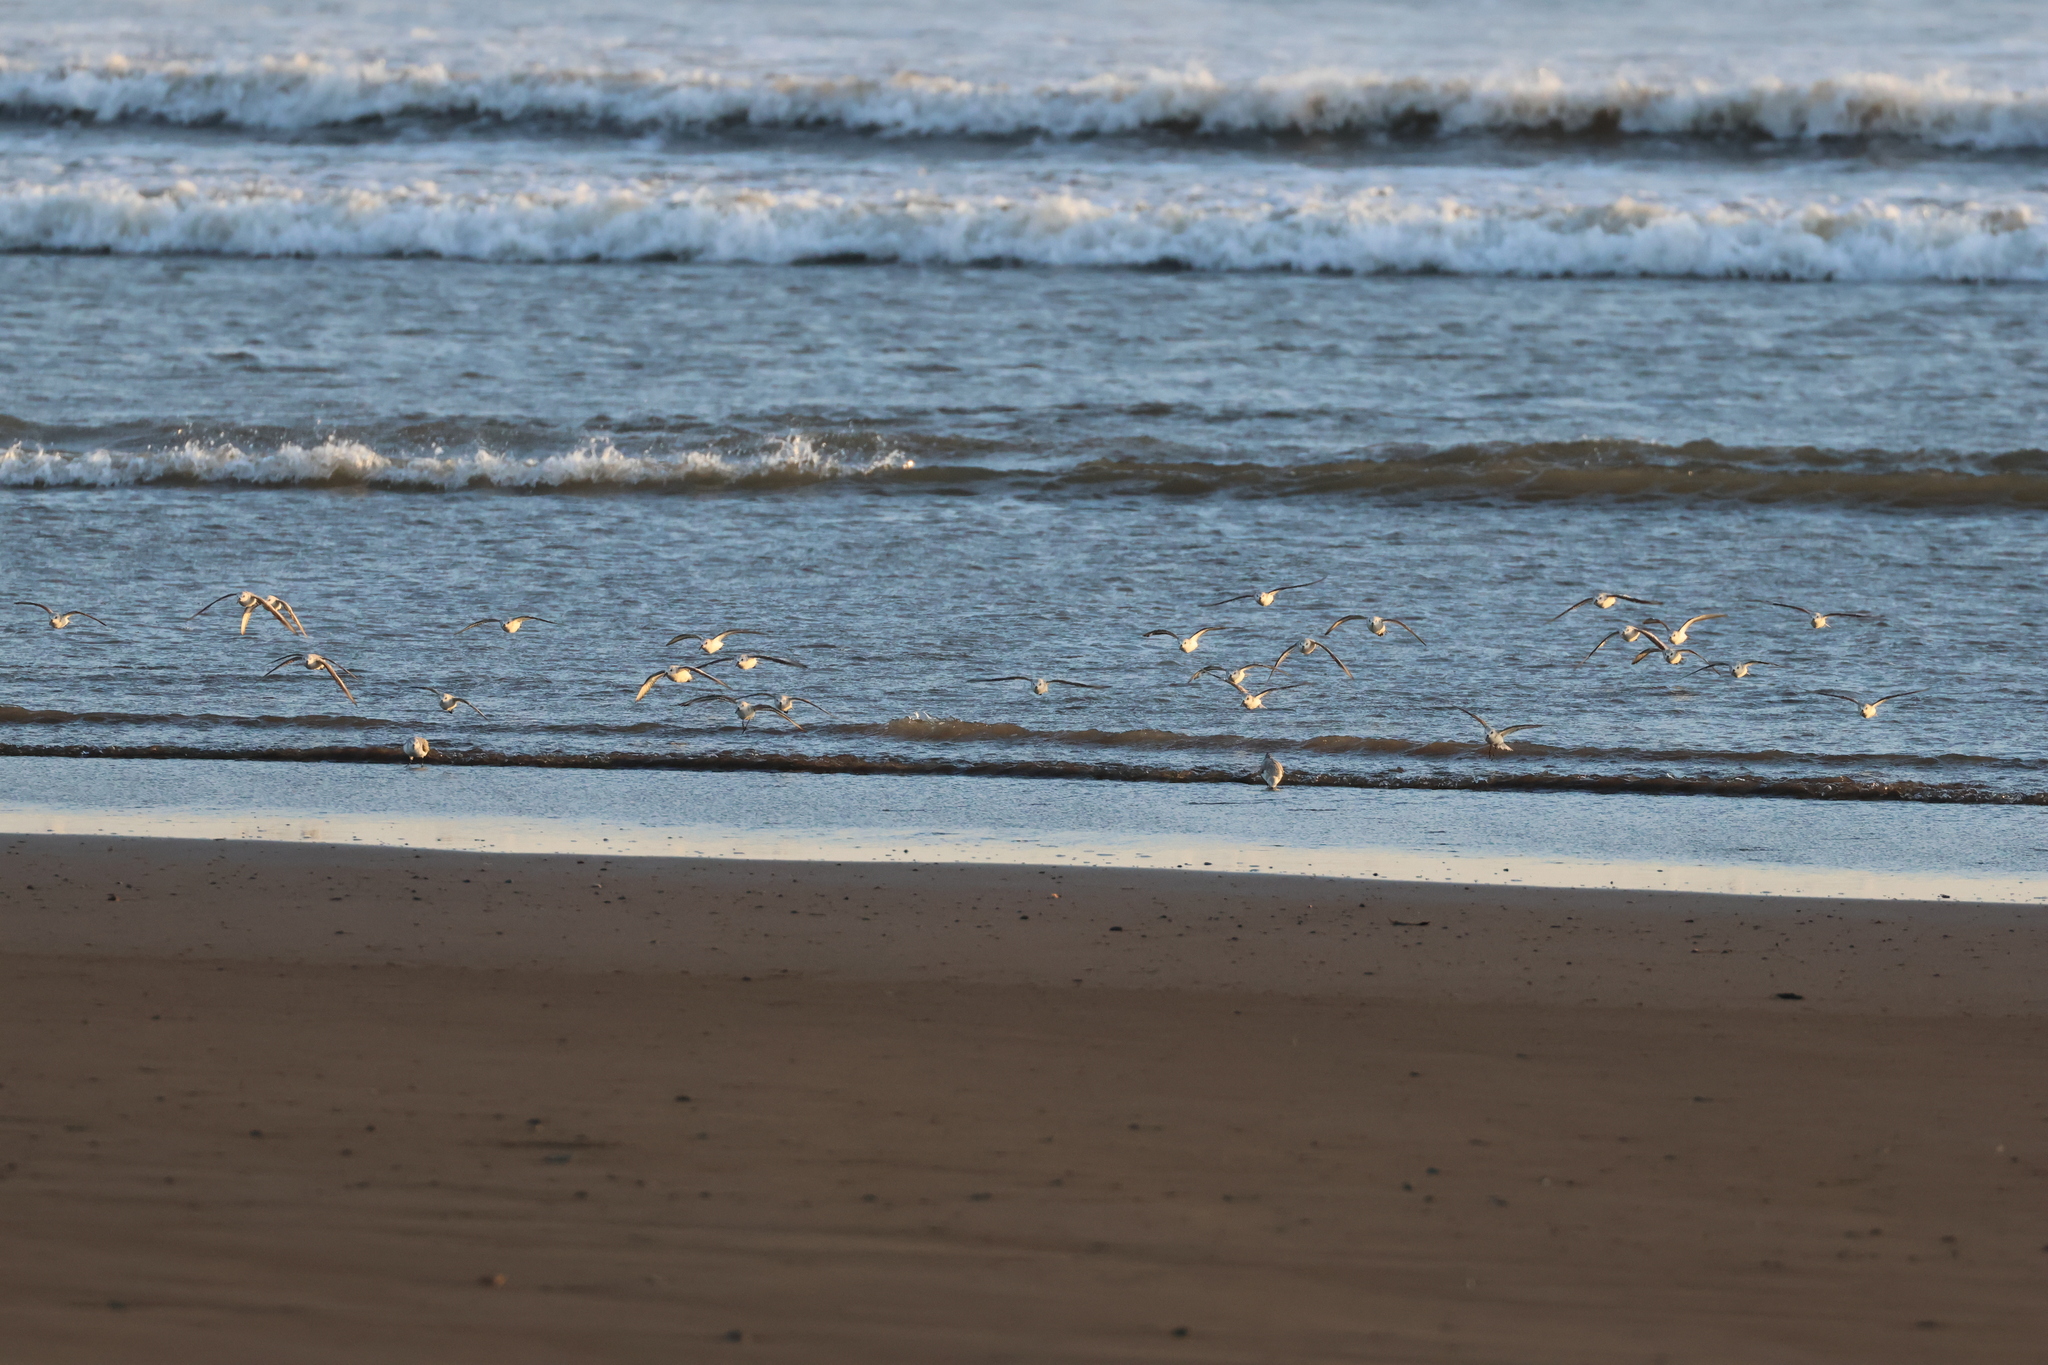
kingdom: Animalia
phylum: Chordata
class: Aves
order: Charadriiformes
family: Scolopacidae
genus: Calidris
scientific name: Calidris alba
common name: Sanderling
